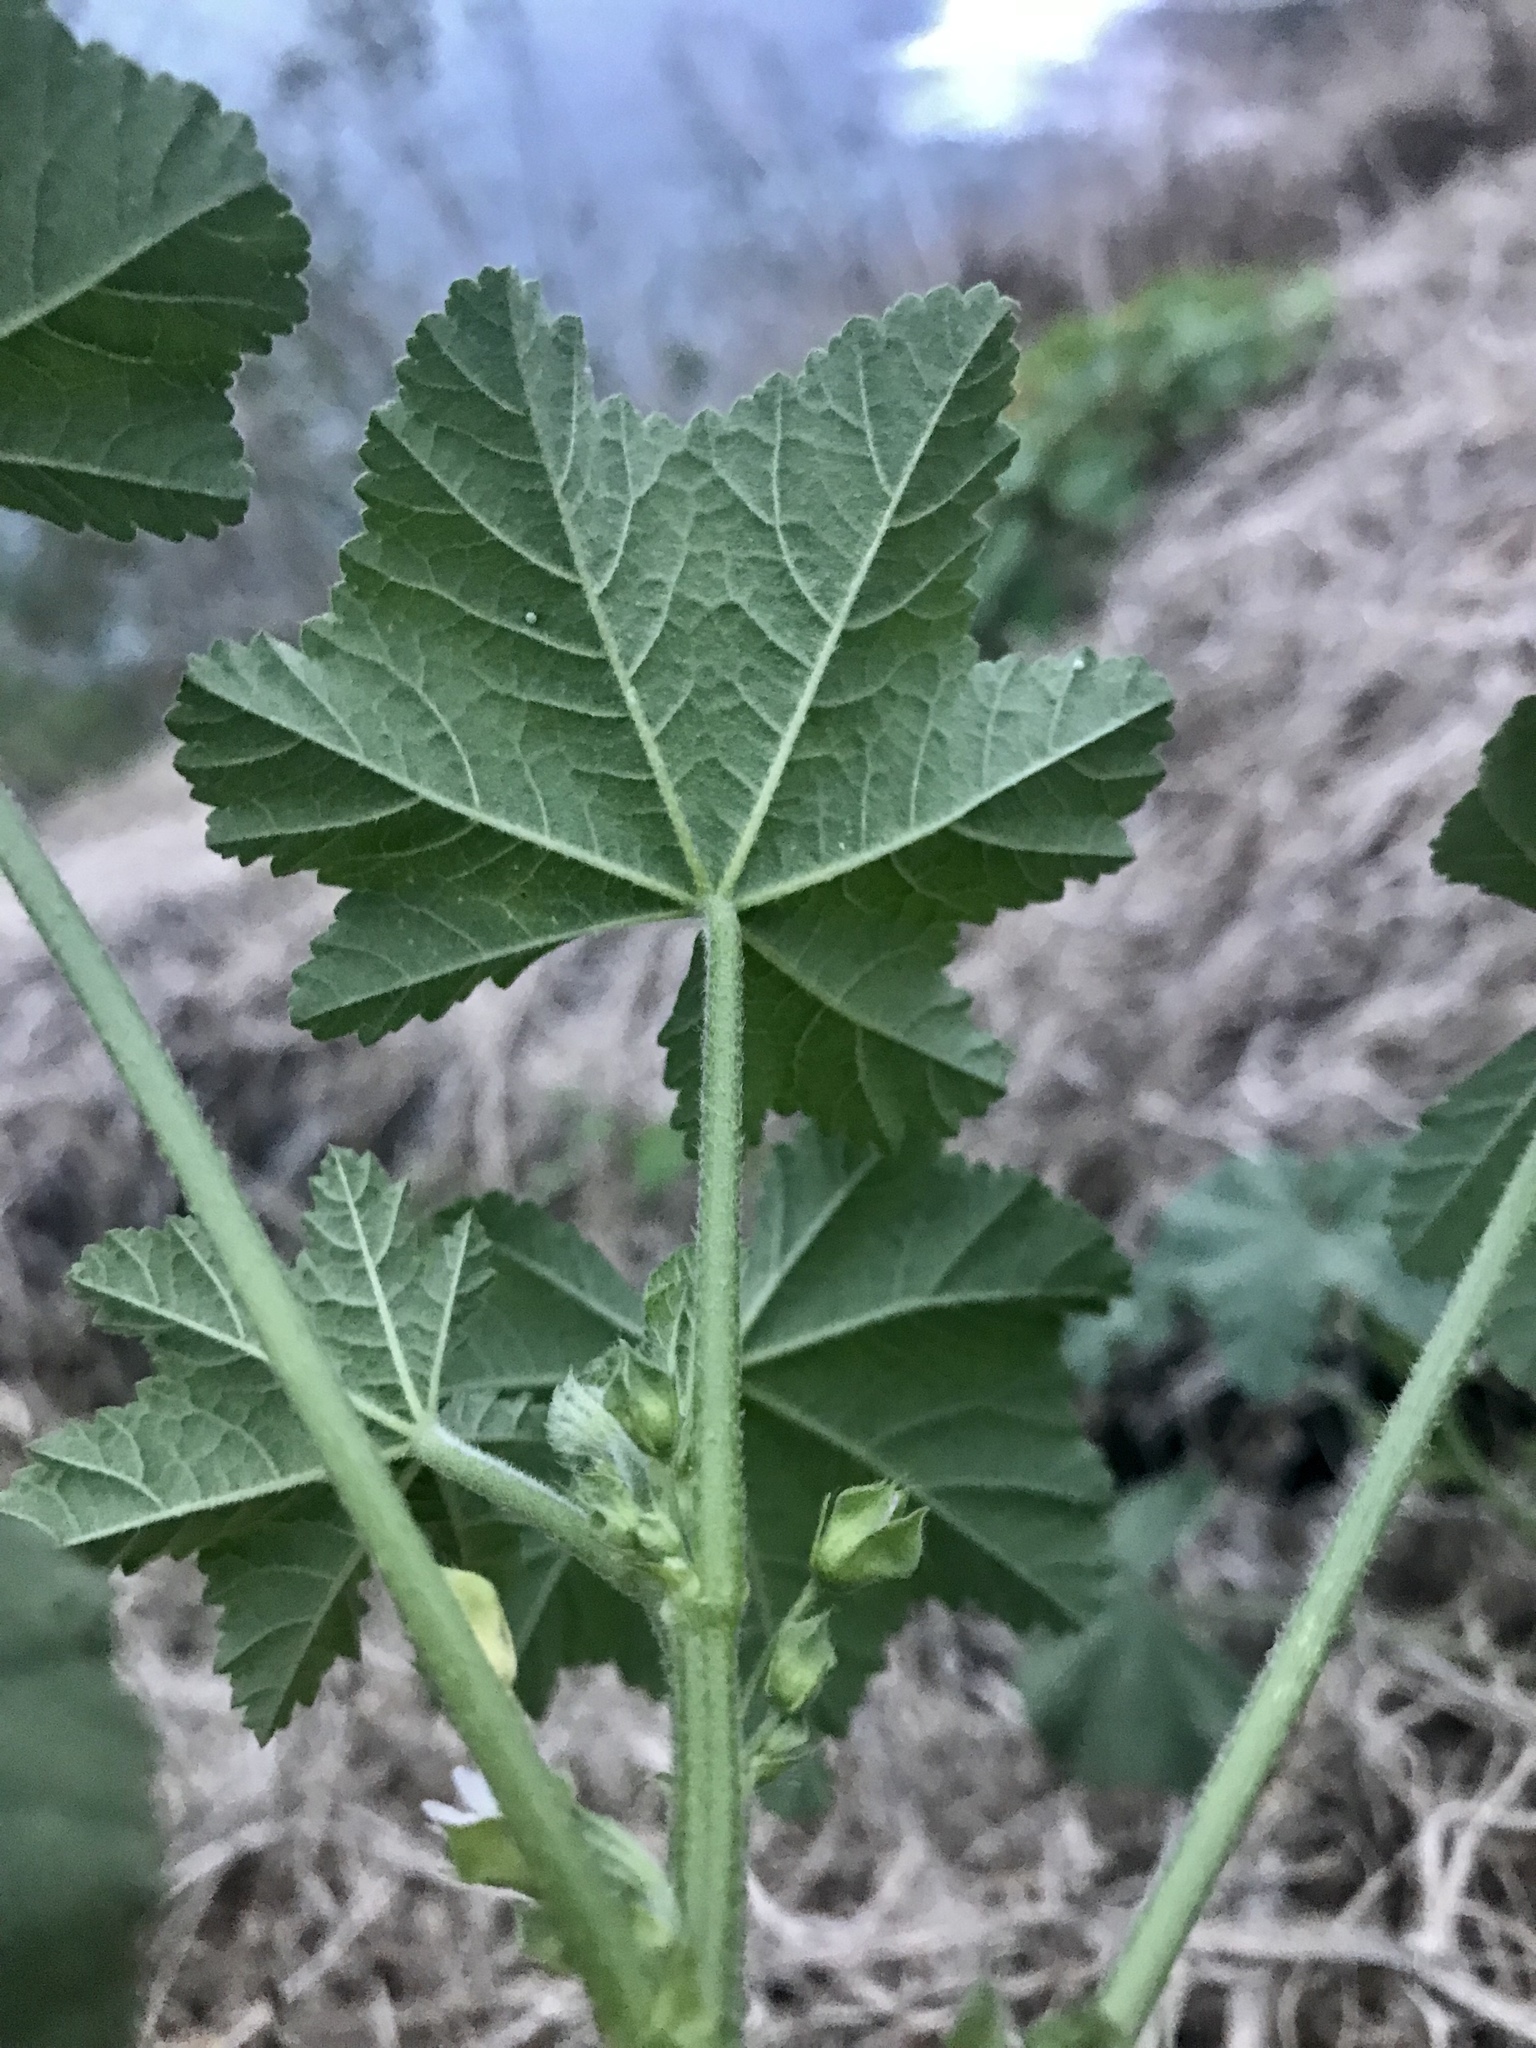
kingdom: Plantae
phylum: Tracheophyta
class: Magnoliopsida
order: Malvales
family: Malvaceae
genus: Malva
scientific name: Malva parviflora
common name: Least mallow
